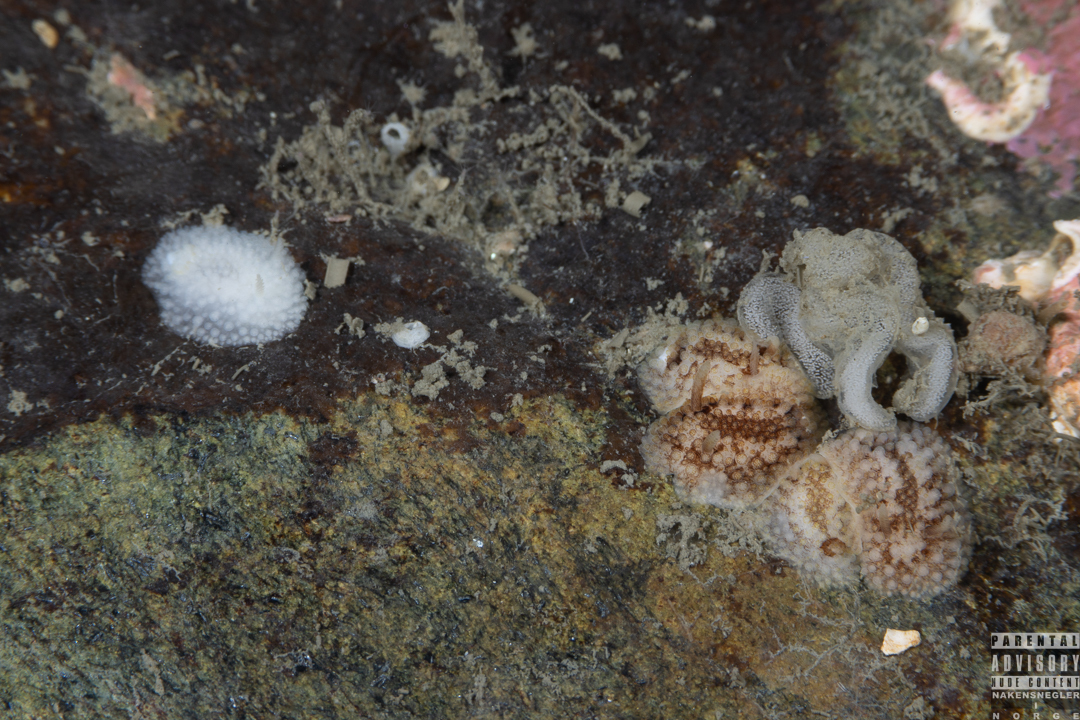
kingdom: Animalia
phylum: Mollusca
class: Gastropoda
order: Nudibranchia
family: Onchidorididae
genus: Onchidoris
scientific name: Onchidoris bilamellata
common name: Barnacle-eating onchidoris
